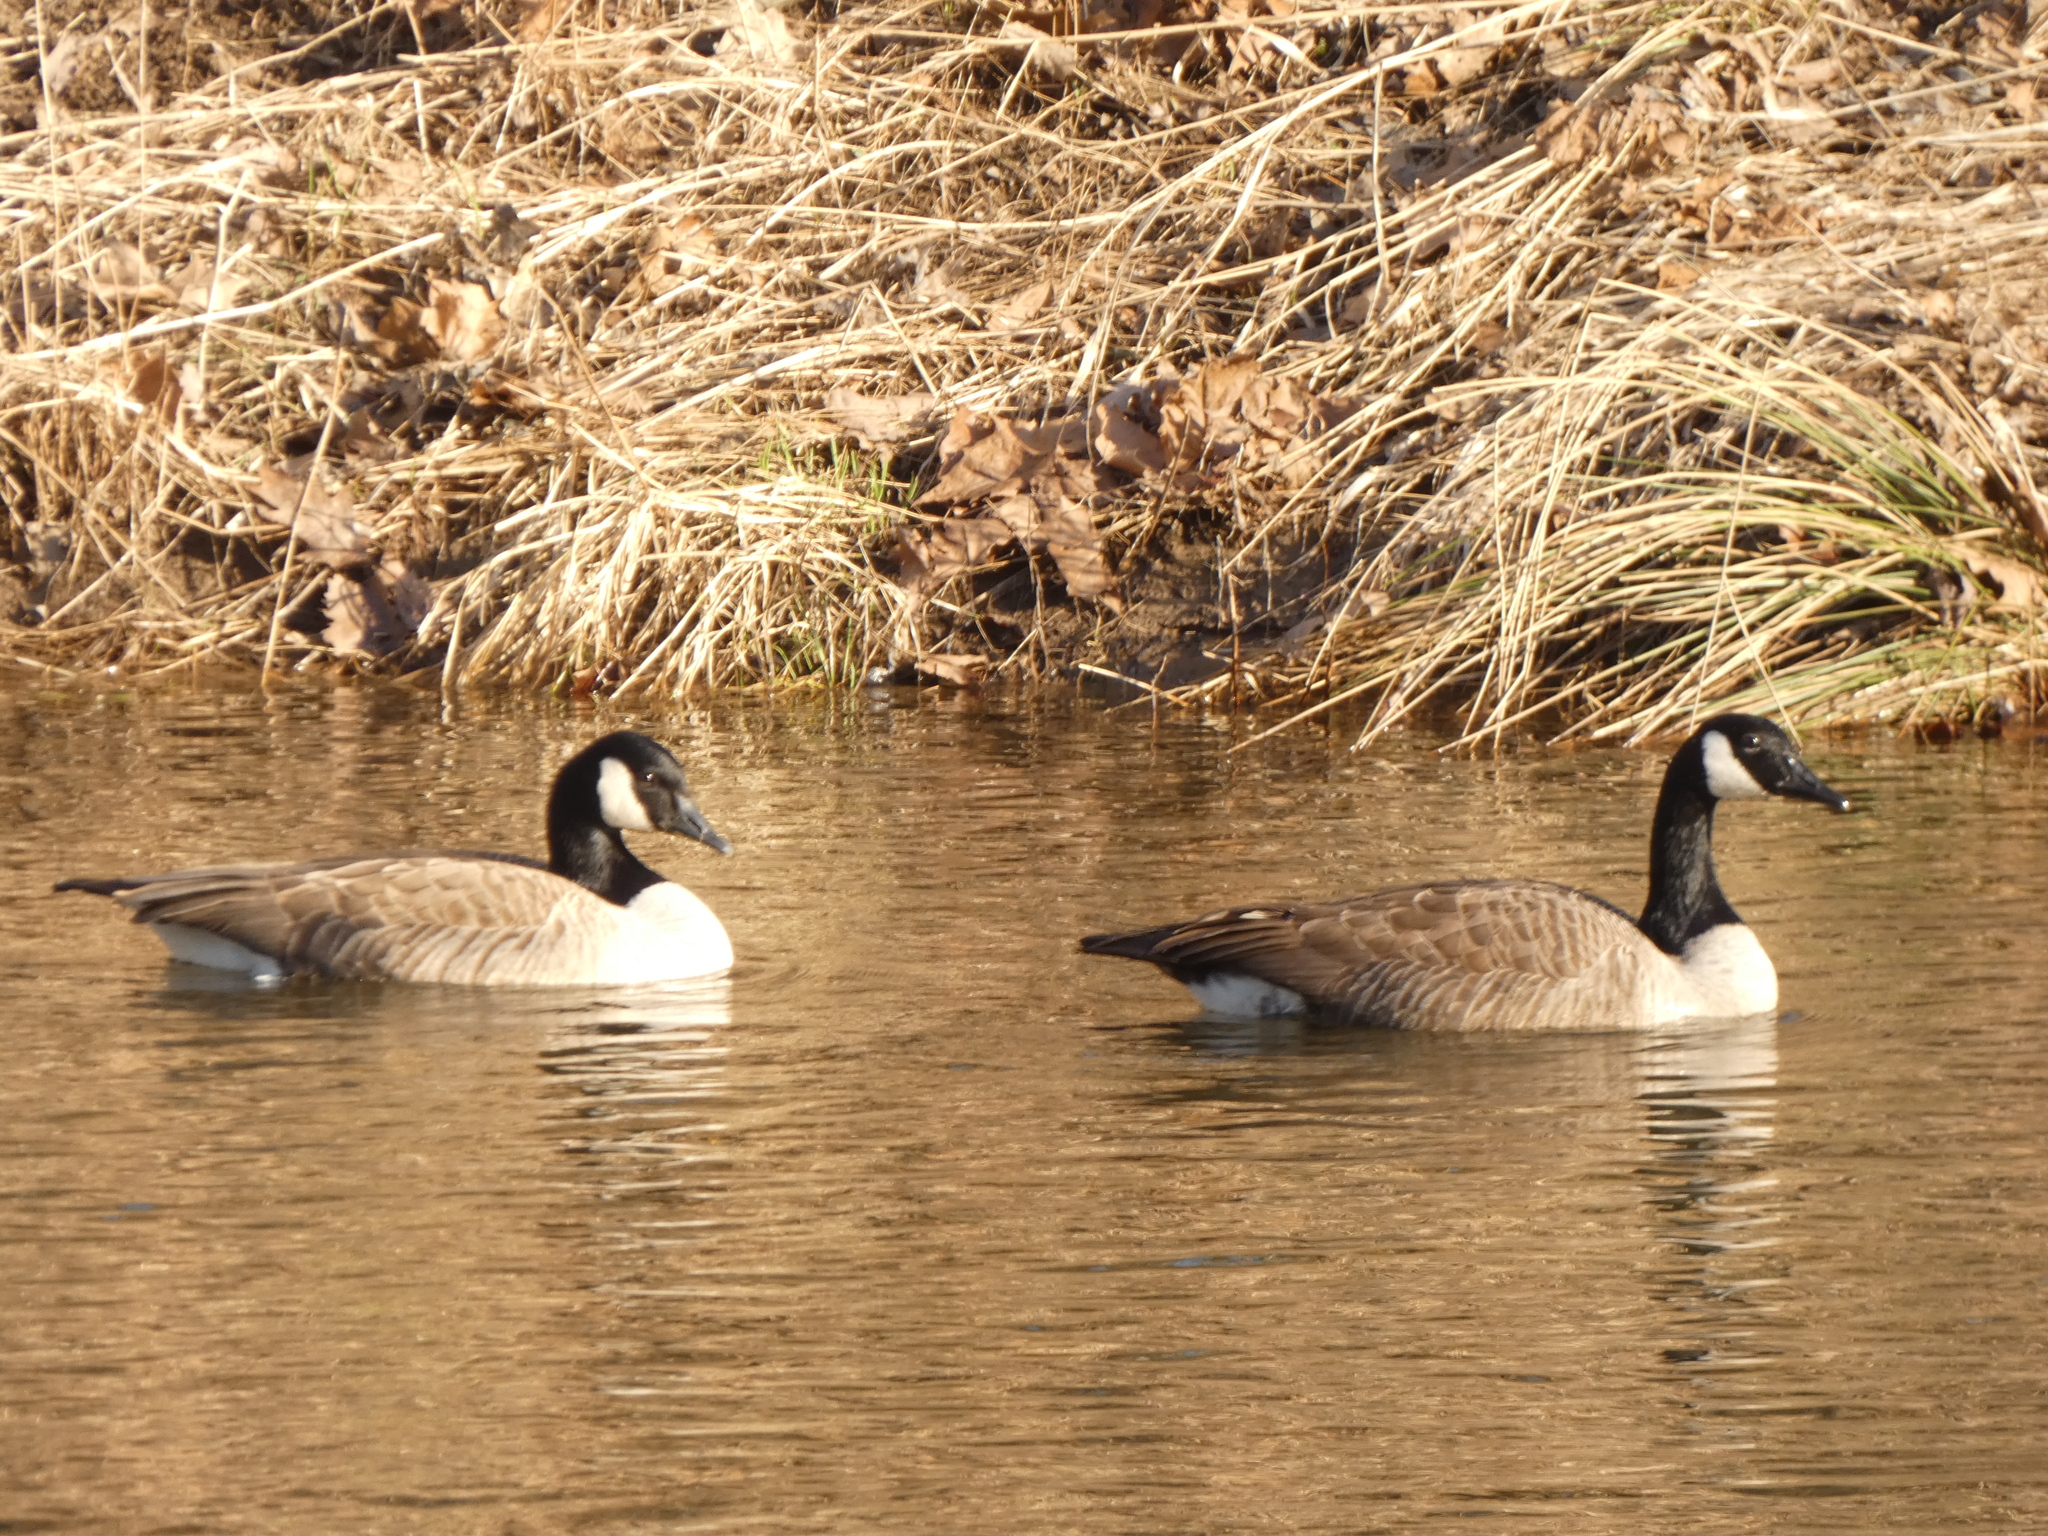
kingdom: Animalia
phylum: Chordata
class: Aves
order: Anseriformes
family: Anatidae
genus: Branta
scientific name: Branta canadensis
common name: Canada goose
